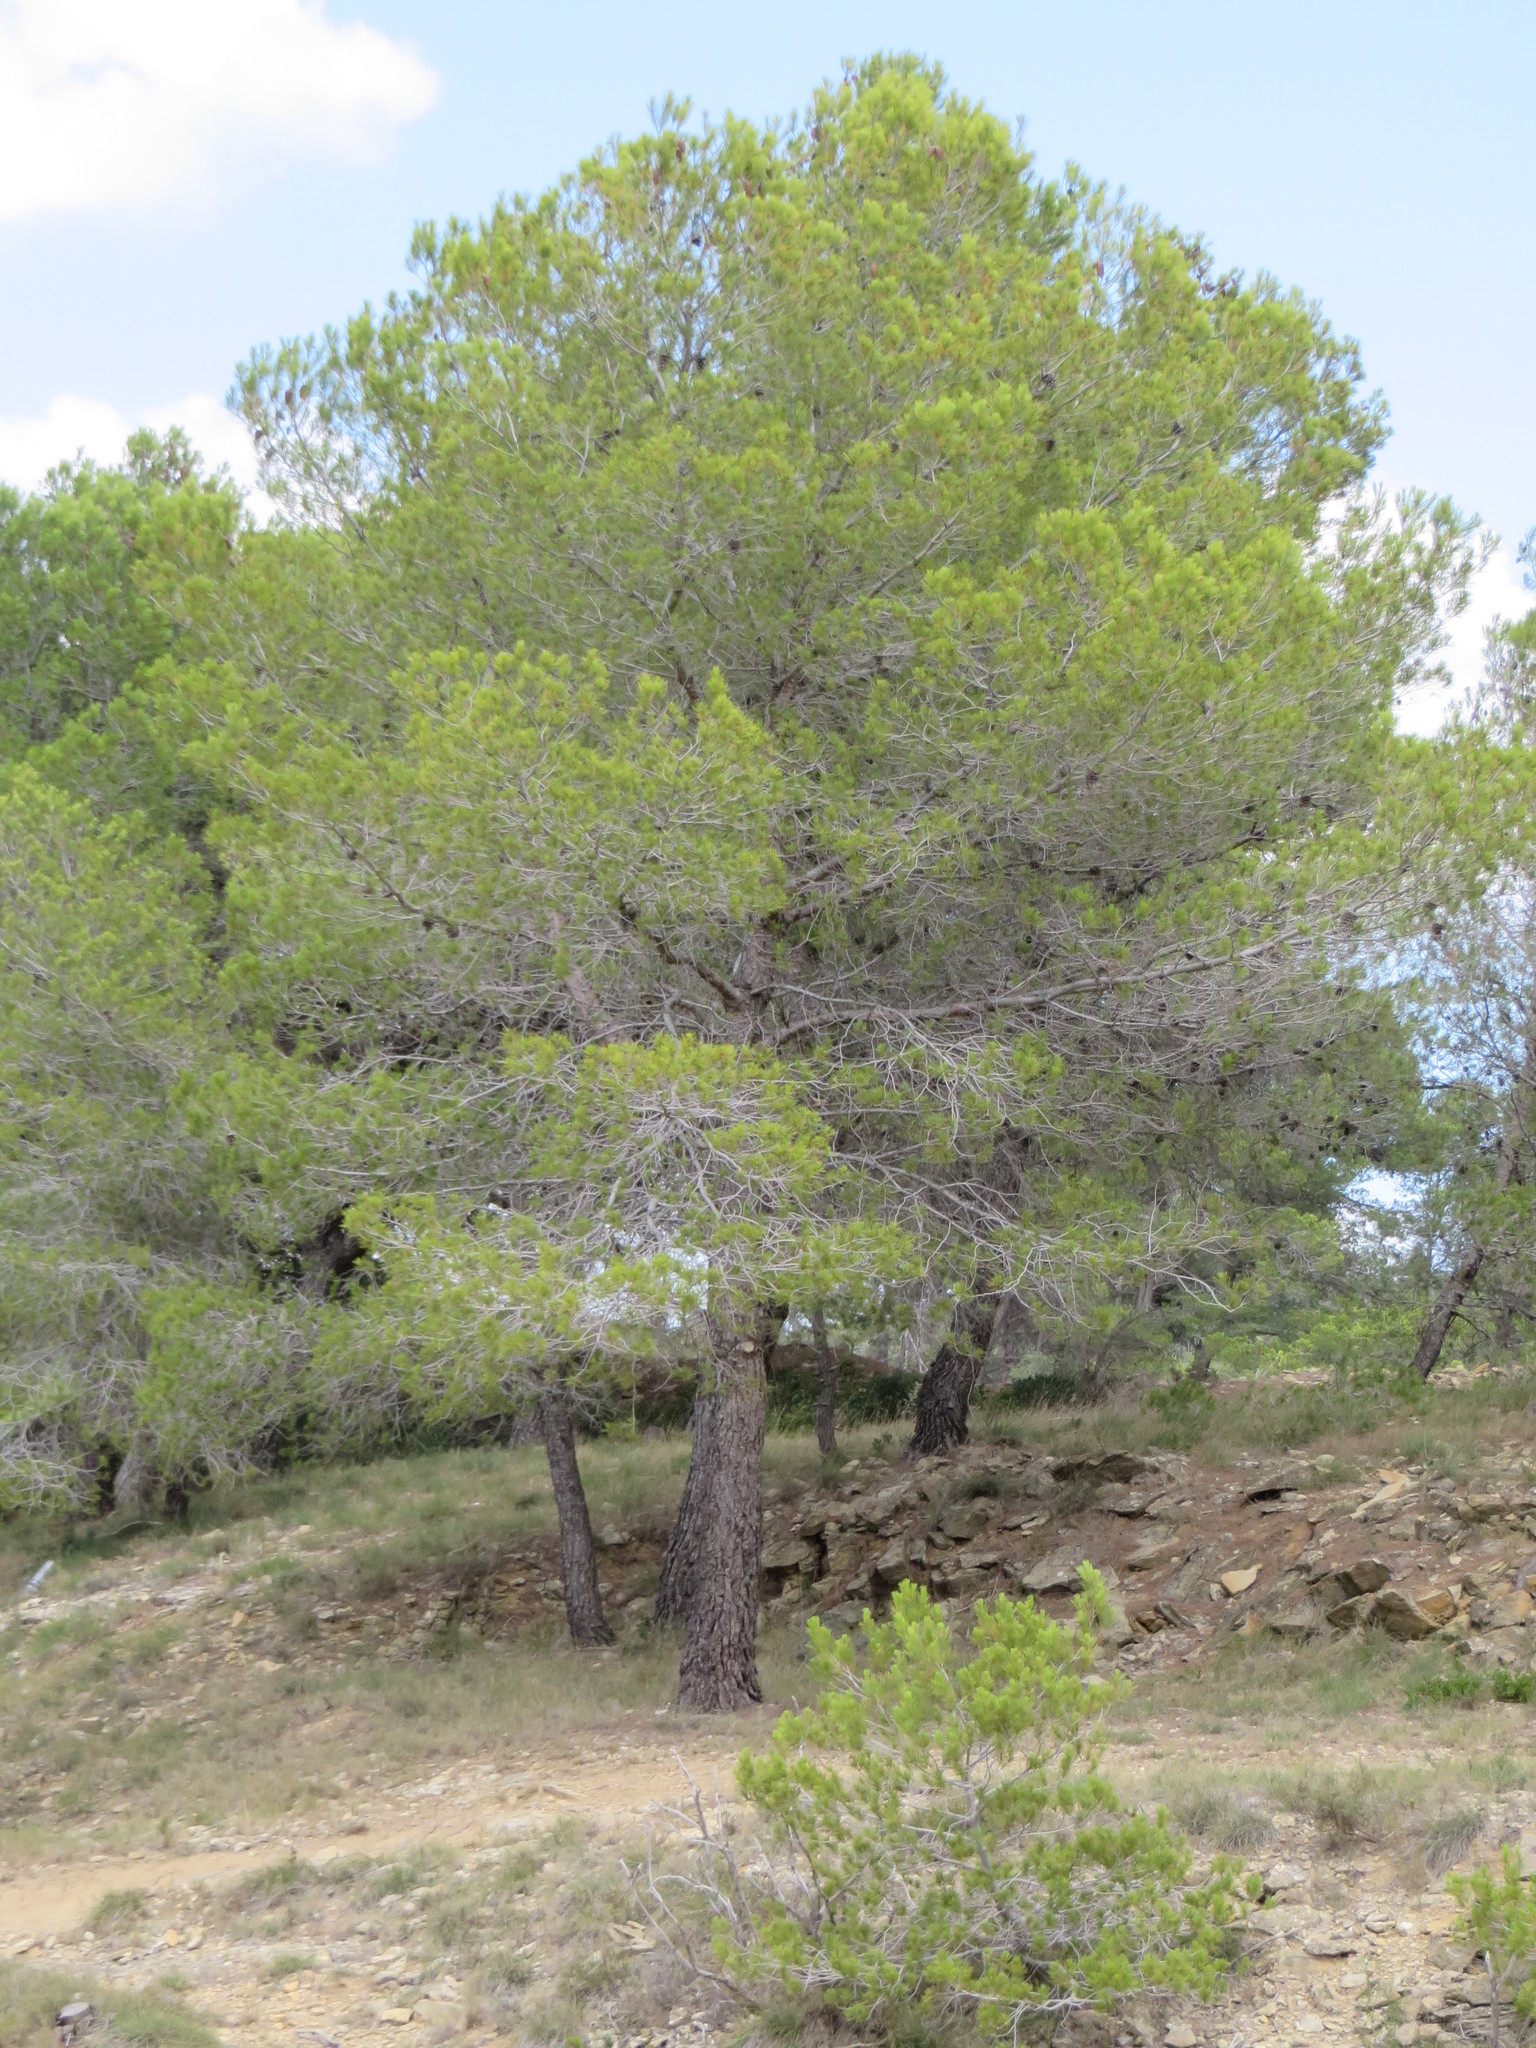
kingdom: Plantae
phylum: Tracheophyta
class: Pinopsida
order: Pinales
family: Pinaceae
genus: Pinus
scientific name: Pinus halepensis
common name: Aleppo pine
